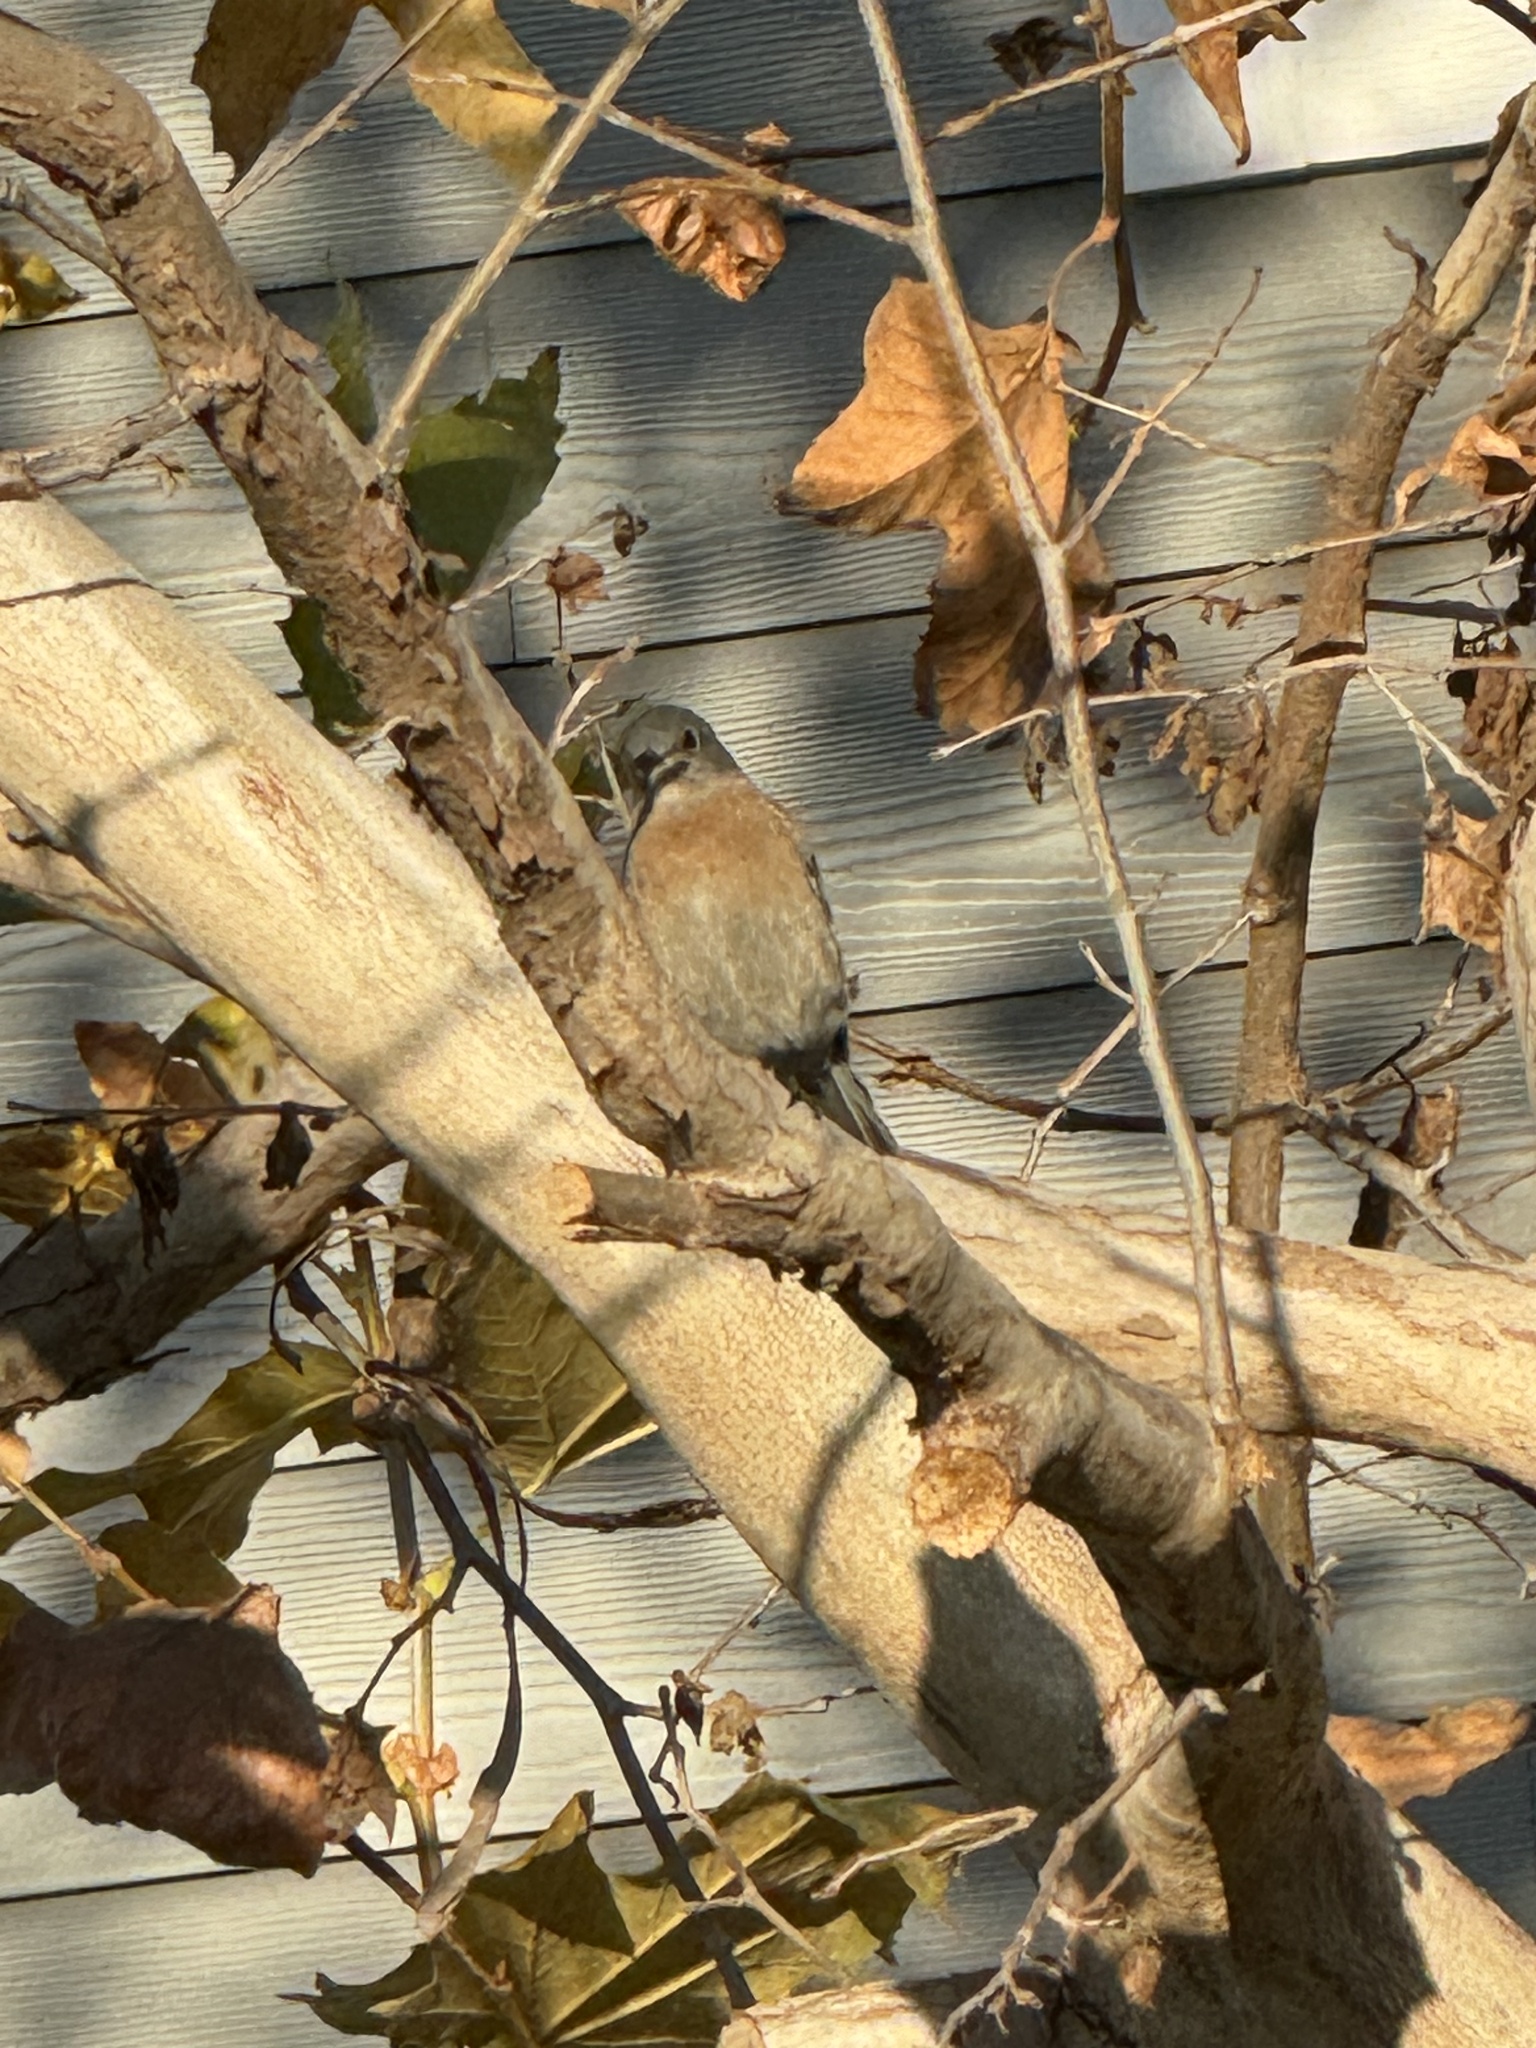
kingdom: Animalia
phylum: Chordata
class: Aves
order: Passeriformes
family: Turdidae
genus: Sialia
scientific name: Sialia mexicana
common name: Western bluebird
